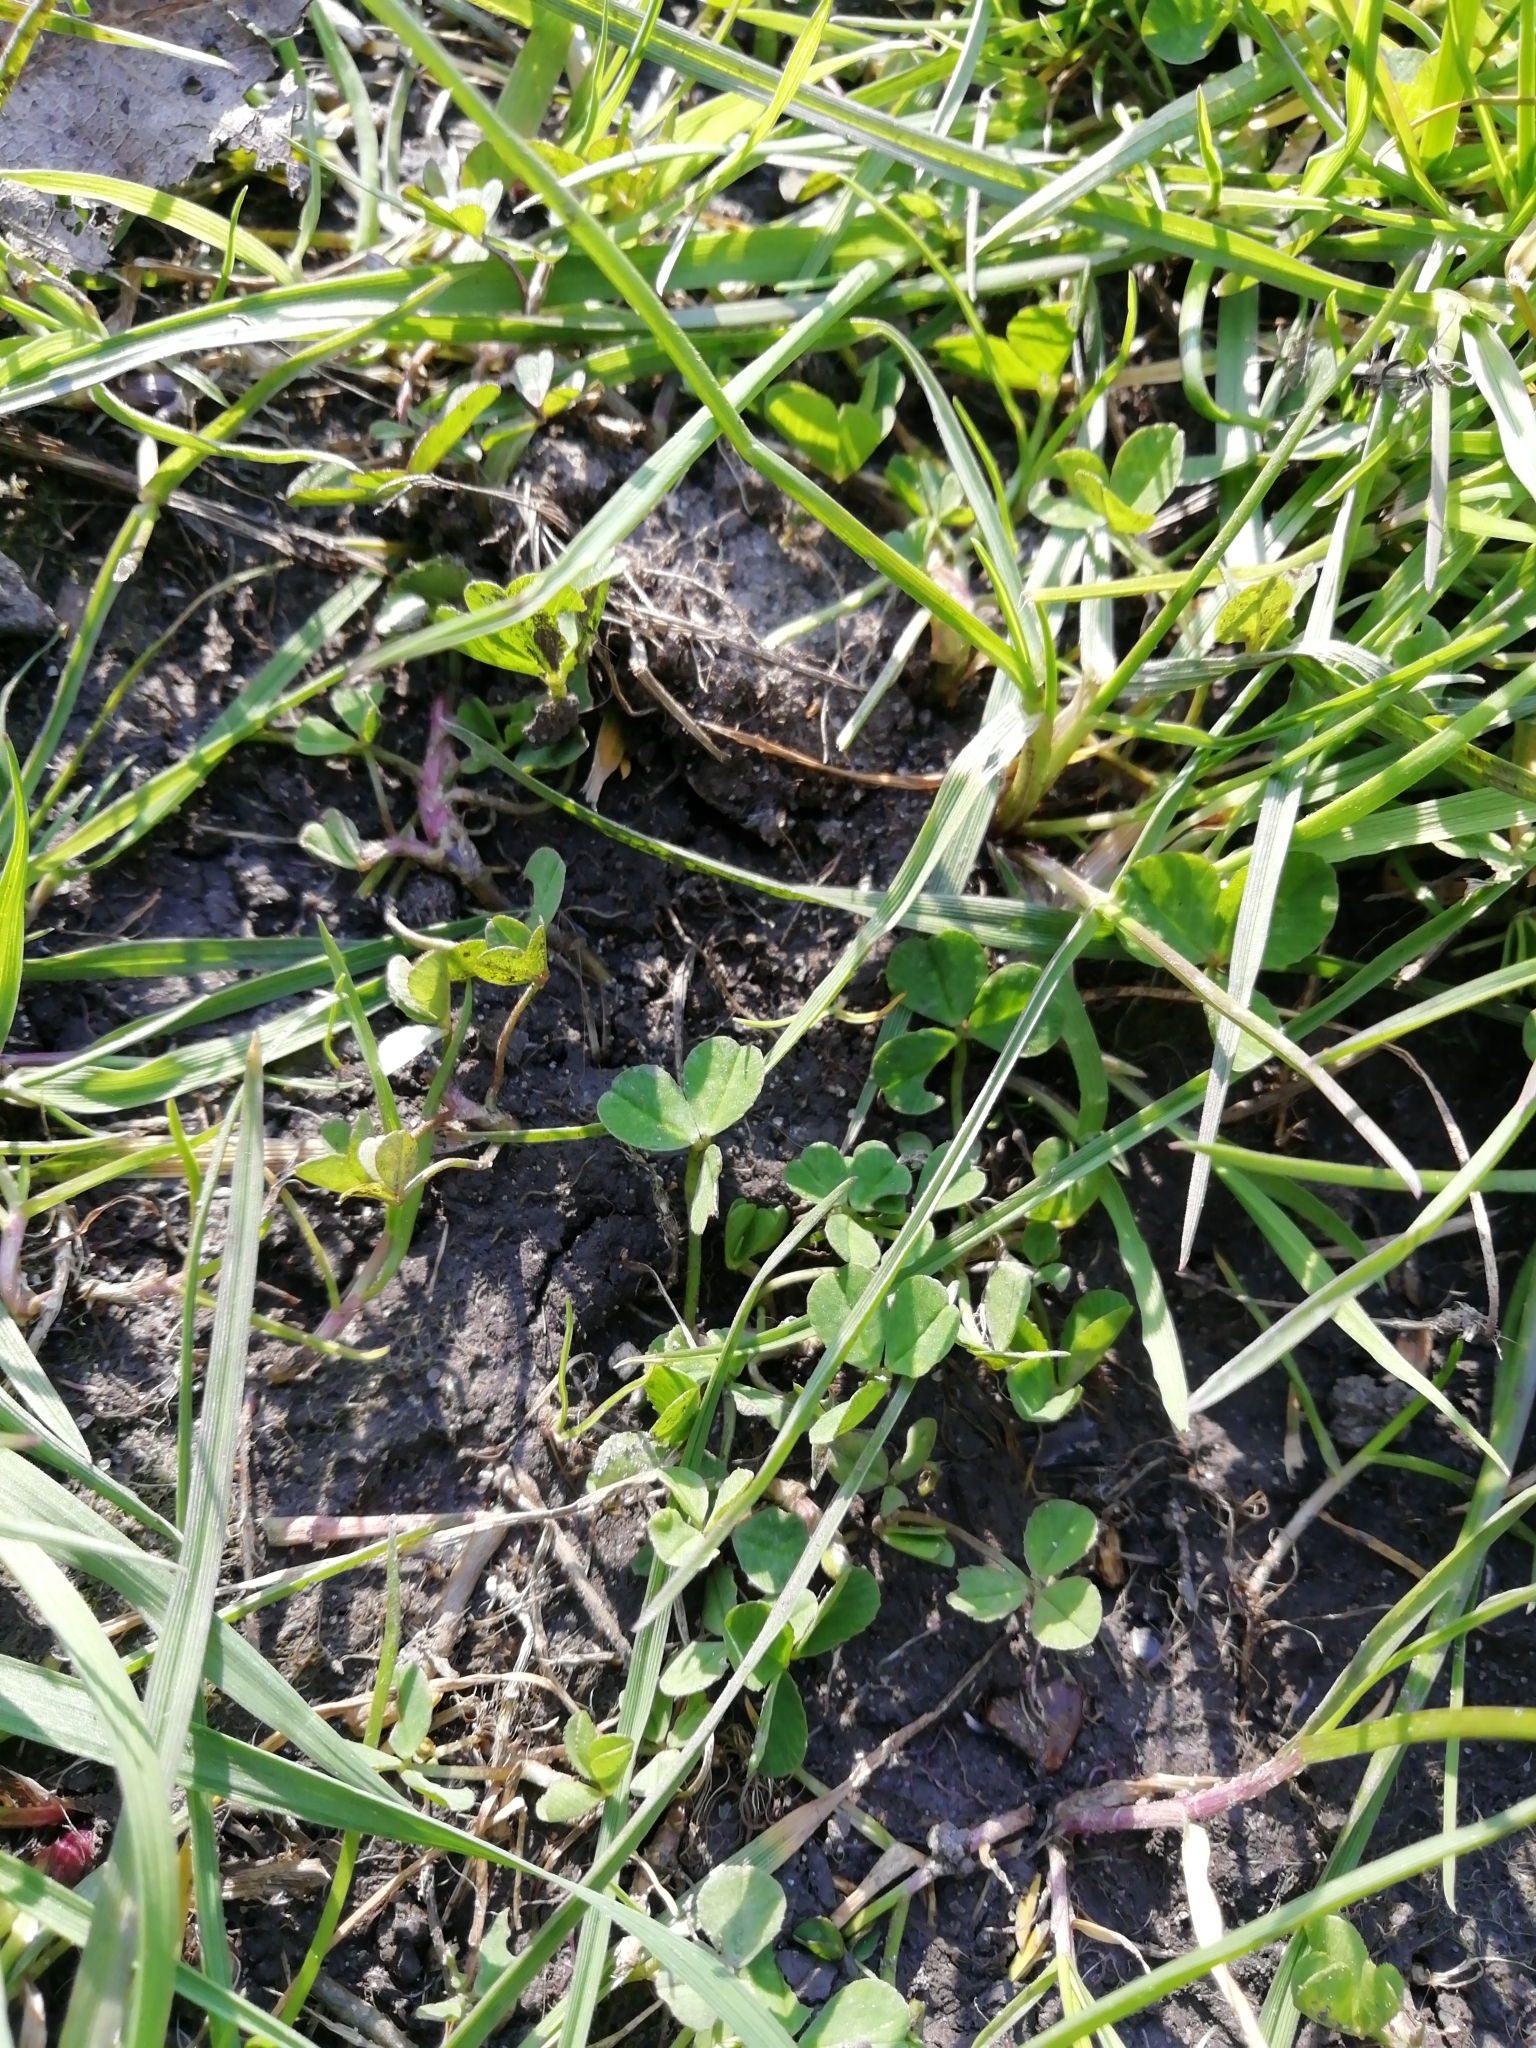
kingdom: Plantae
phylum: Tracheophyta
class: Magnoliopsida
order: Fabales
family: Fabaceae
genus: Trifolium
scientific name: Trifolium repens
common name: White clover
